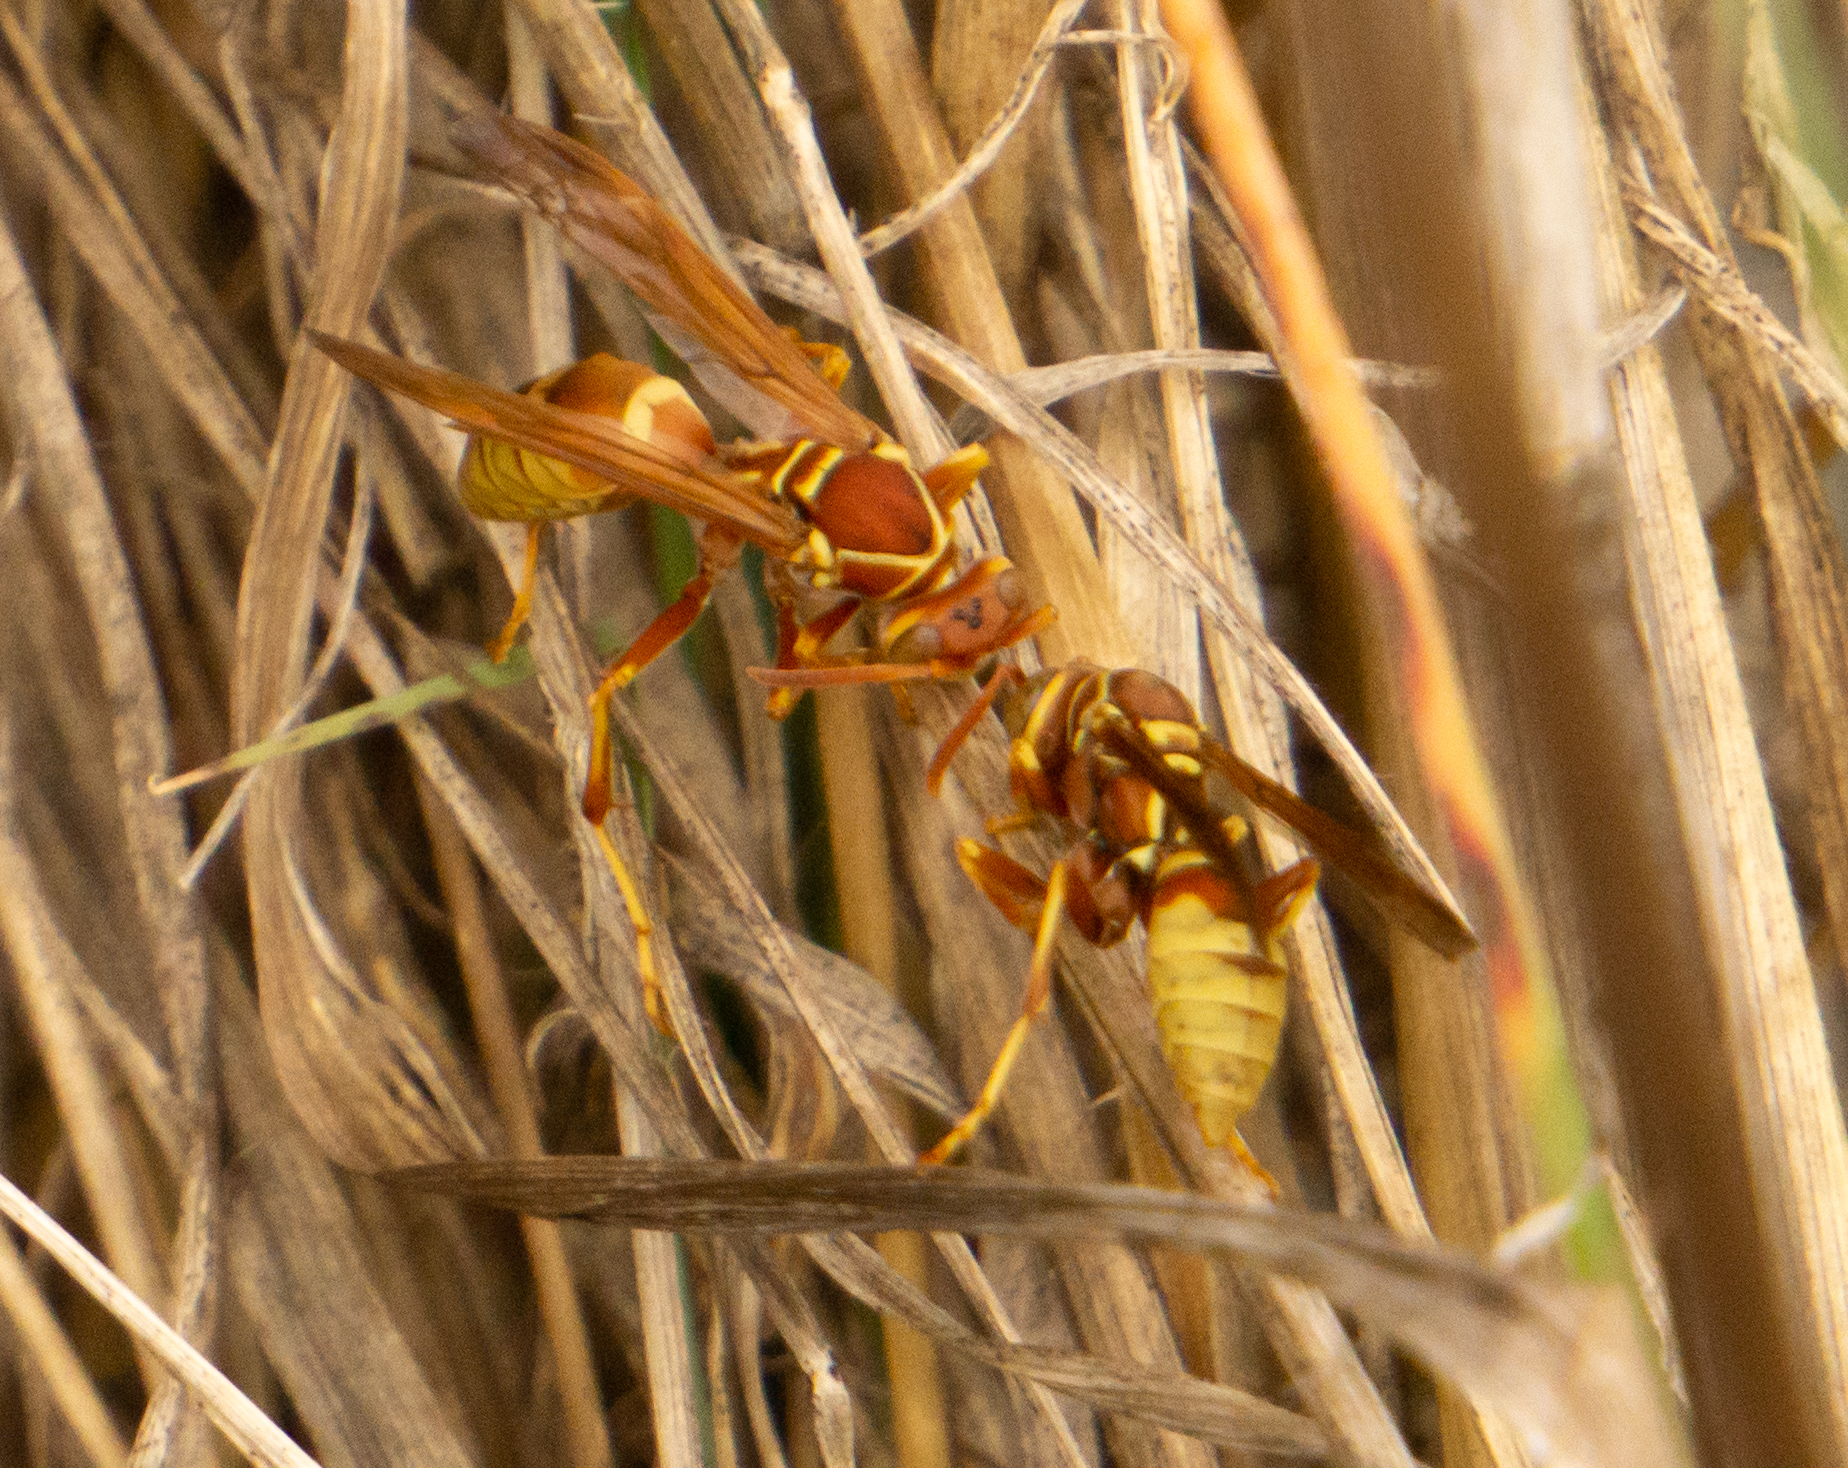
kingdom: Animalia
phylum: Arthropoda
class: Insecta
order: Hymenoptera
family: Eumenidae
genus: Polistes
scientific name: Polistes dorsalis
